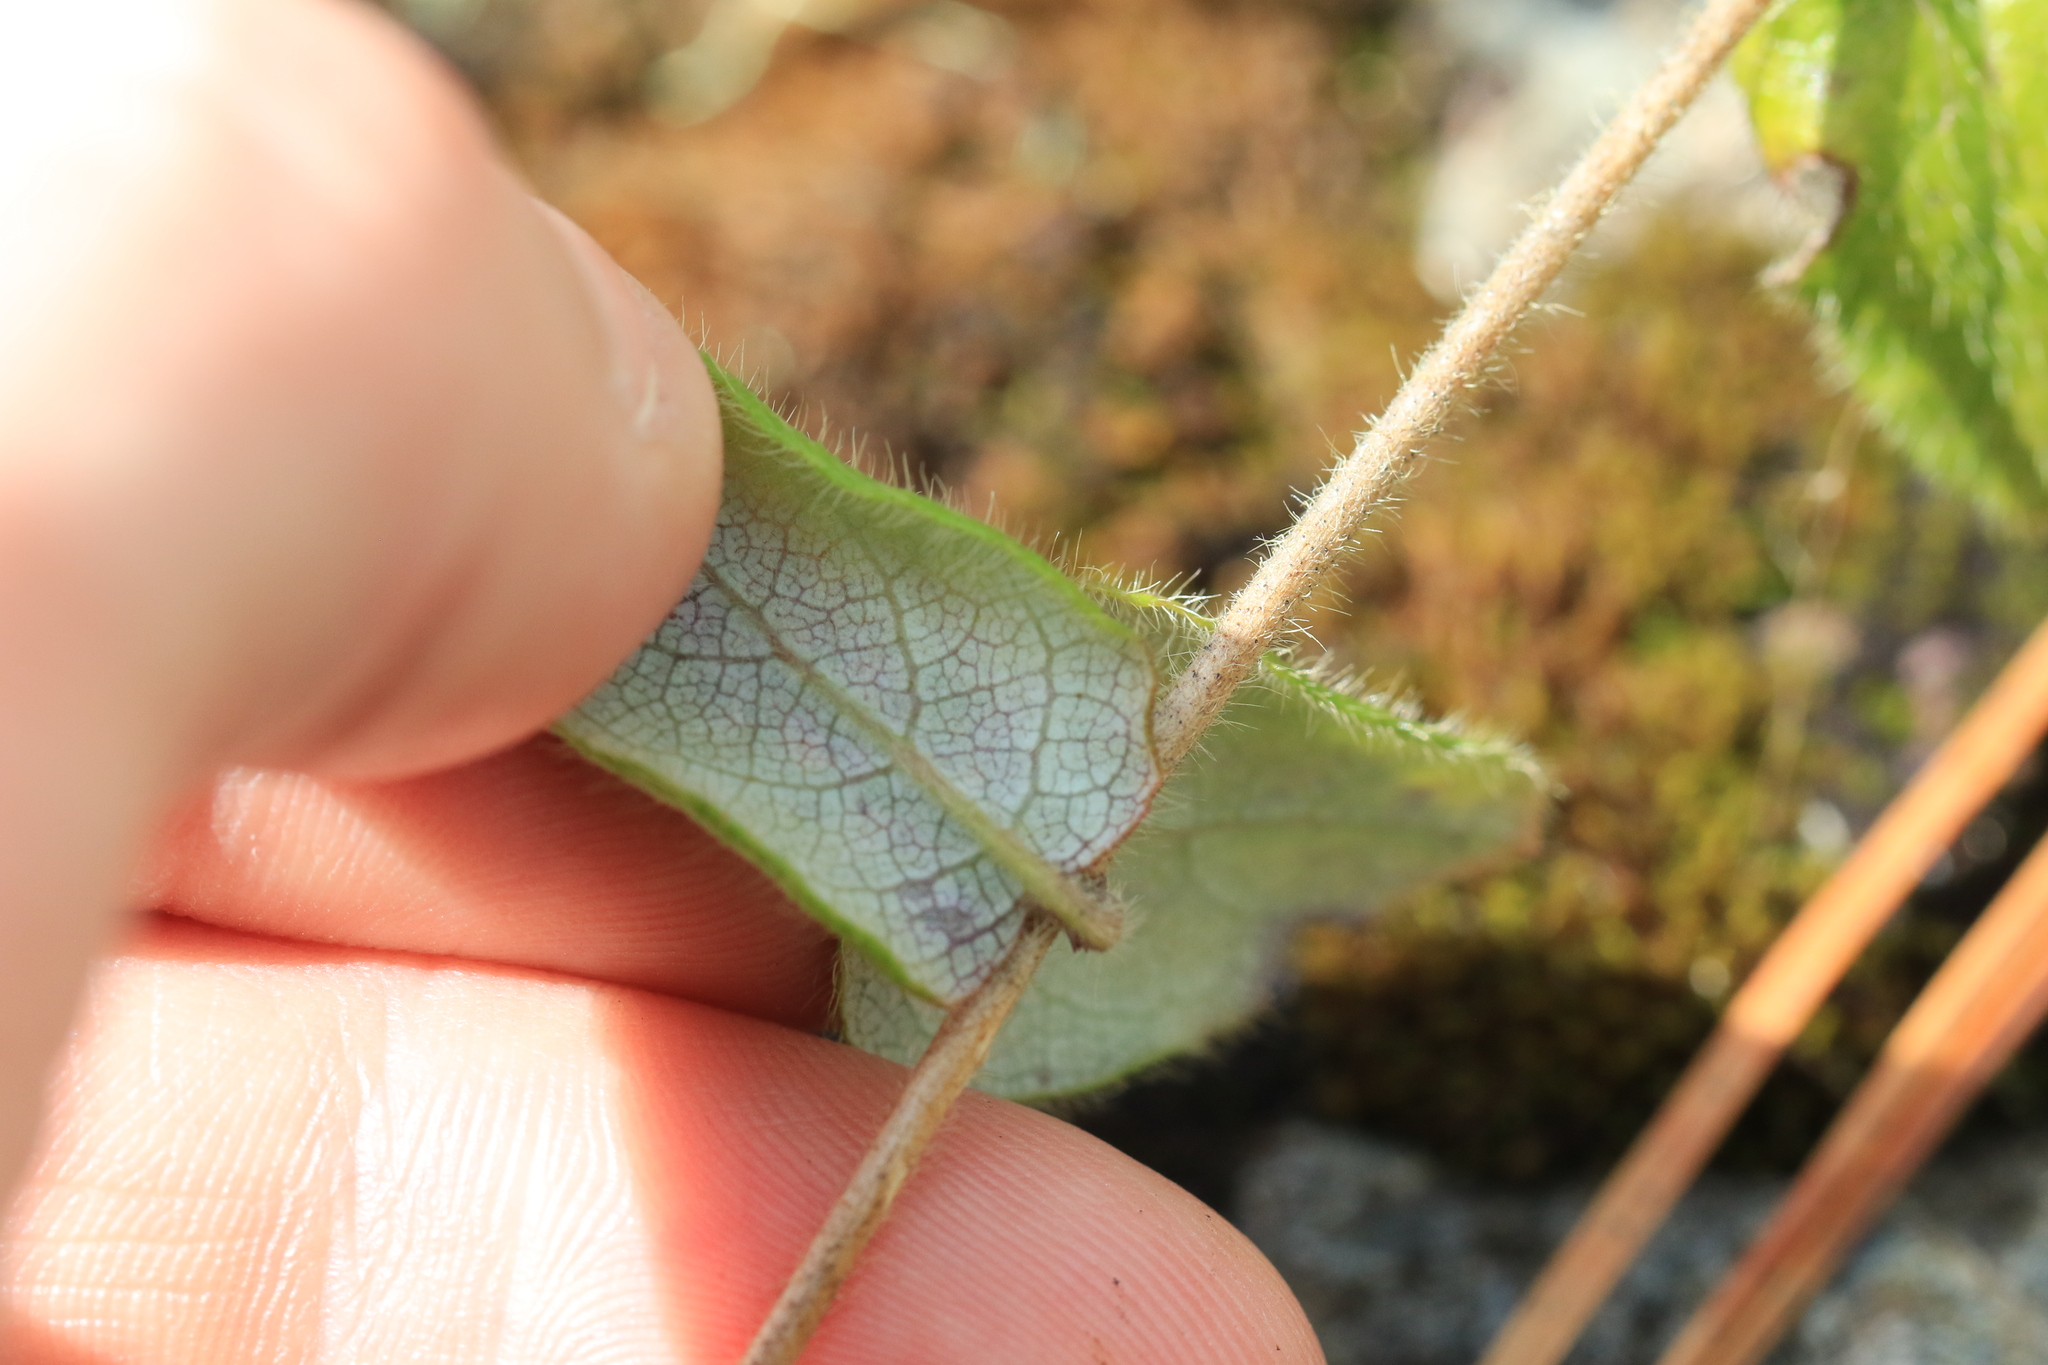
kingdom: Plantae
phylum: Tracheophyta
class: Magnoliopsida
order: Dipsacales
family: Caprifoliaceae
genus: Lonicera
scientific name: Lonicera hispidula
